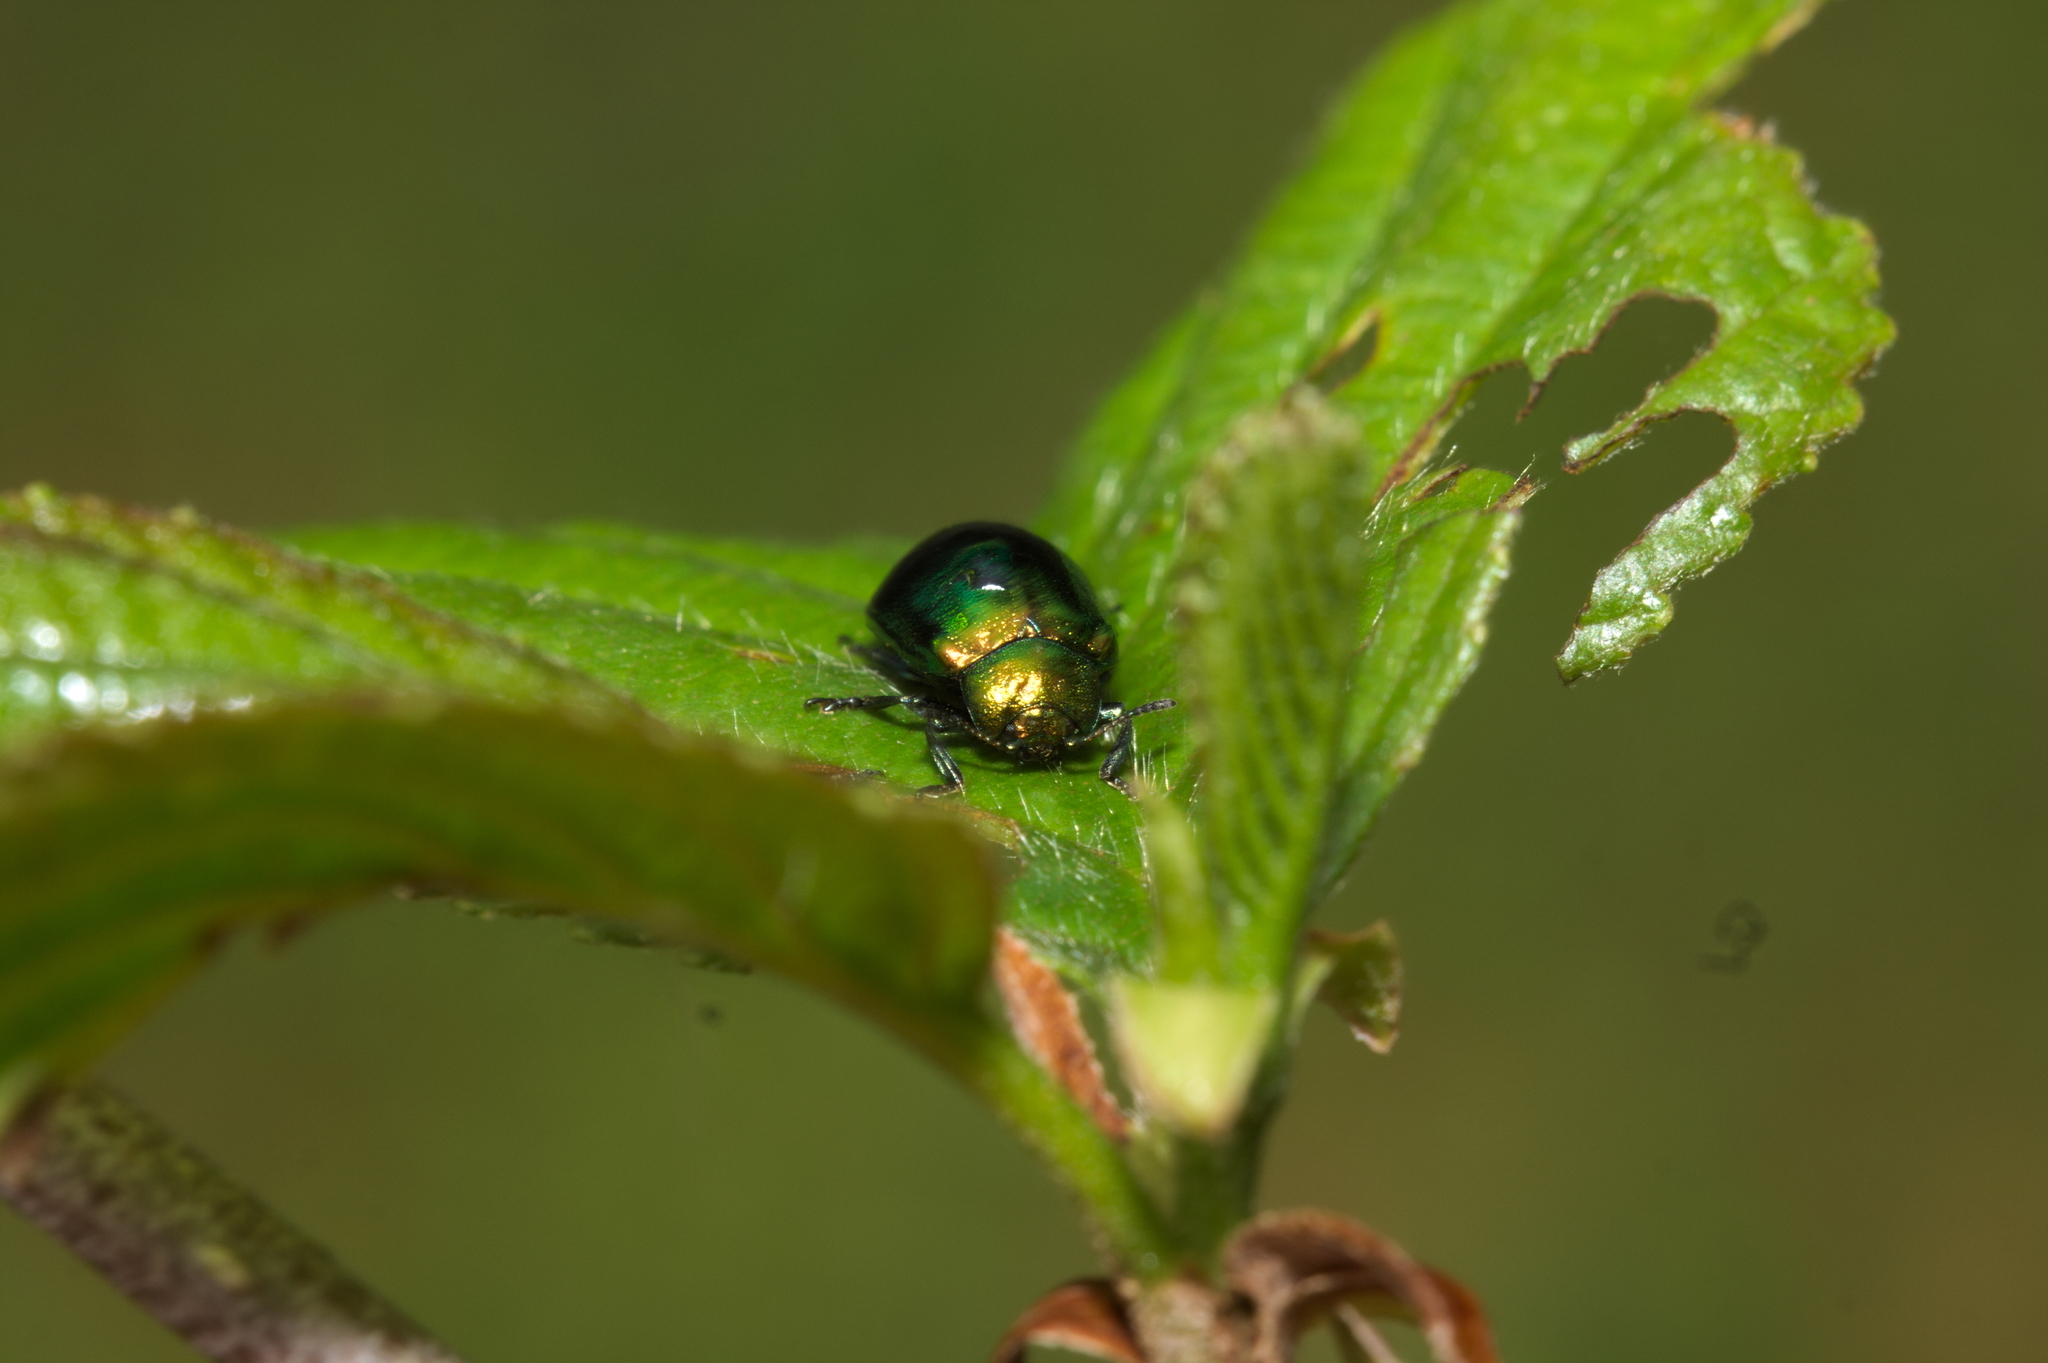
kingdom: Animalia
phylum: Arthropoda
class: Insecta
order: Coleoptera
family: Chrysomelidae
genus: Plagiosterna
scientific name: Plagiosterna aenea
